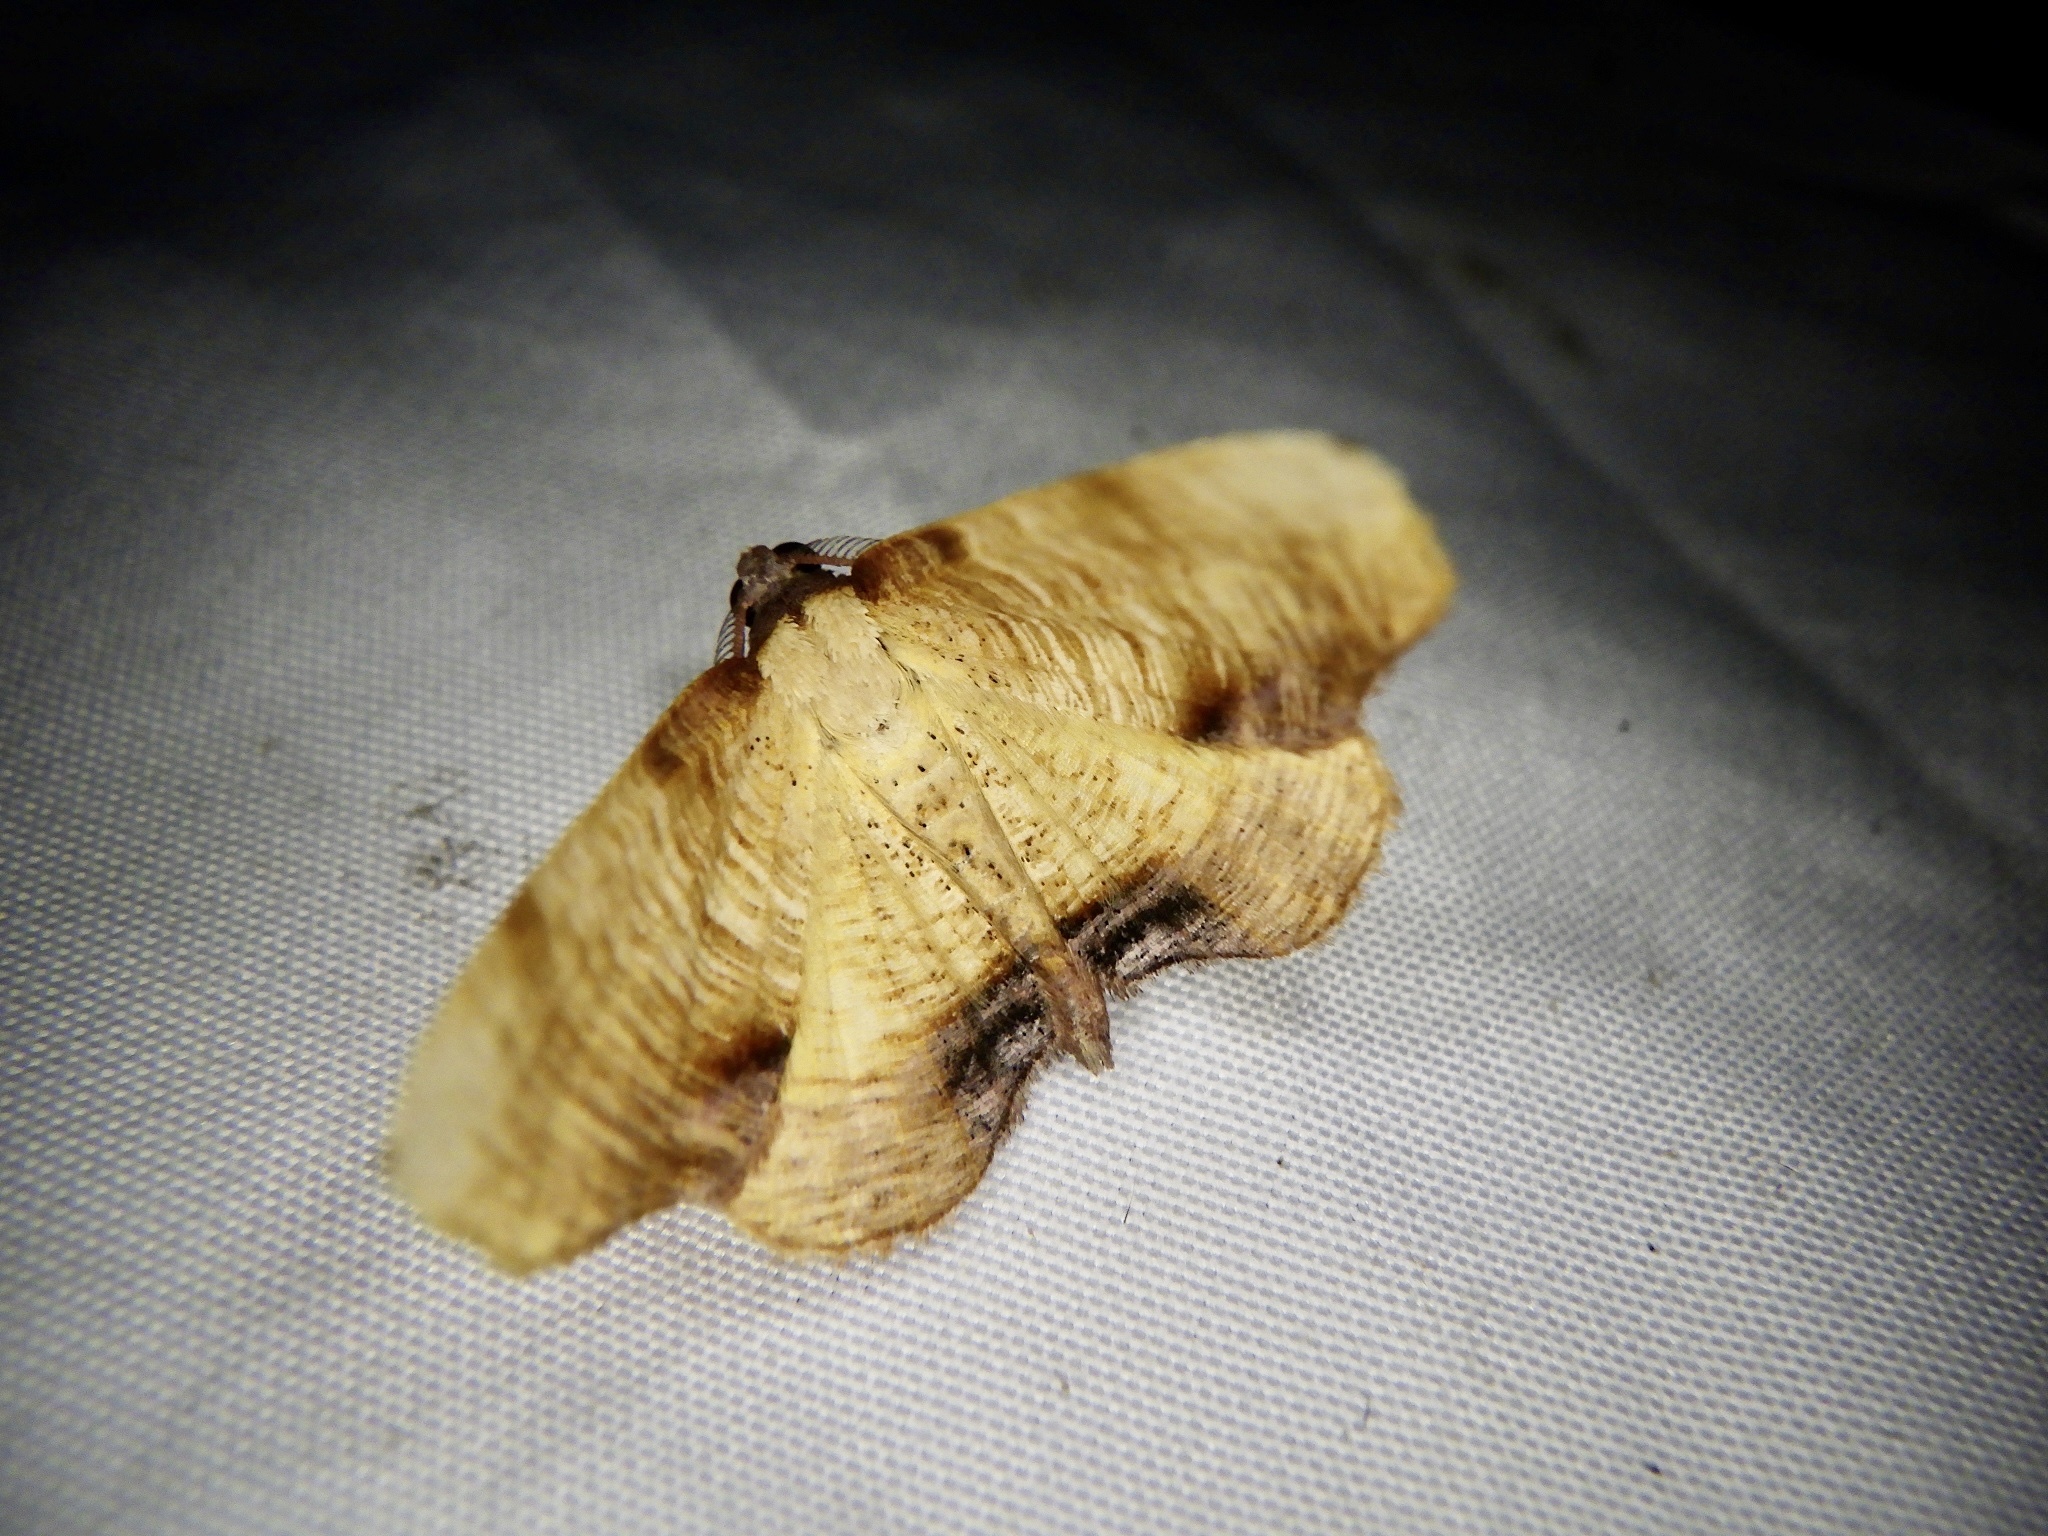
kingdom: Animalia
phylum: Arthropoda
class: Insecta
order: Lepidoptera
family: Geometridae
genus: Plagodis
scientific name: Plagodis dolabraria
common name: Scorched wing
